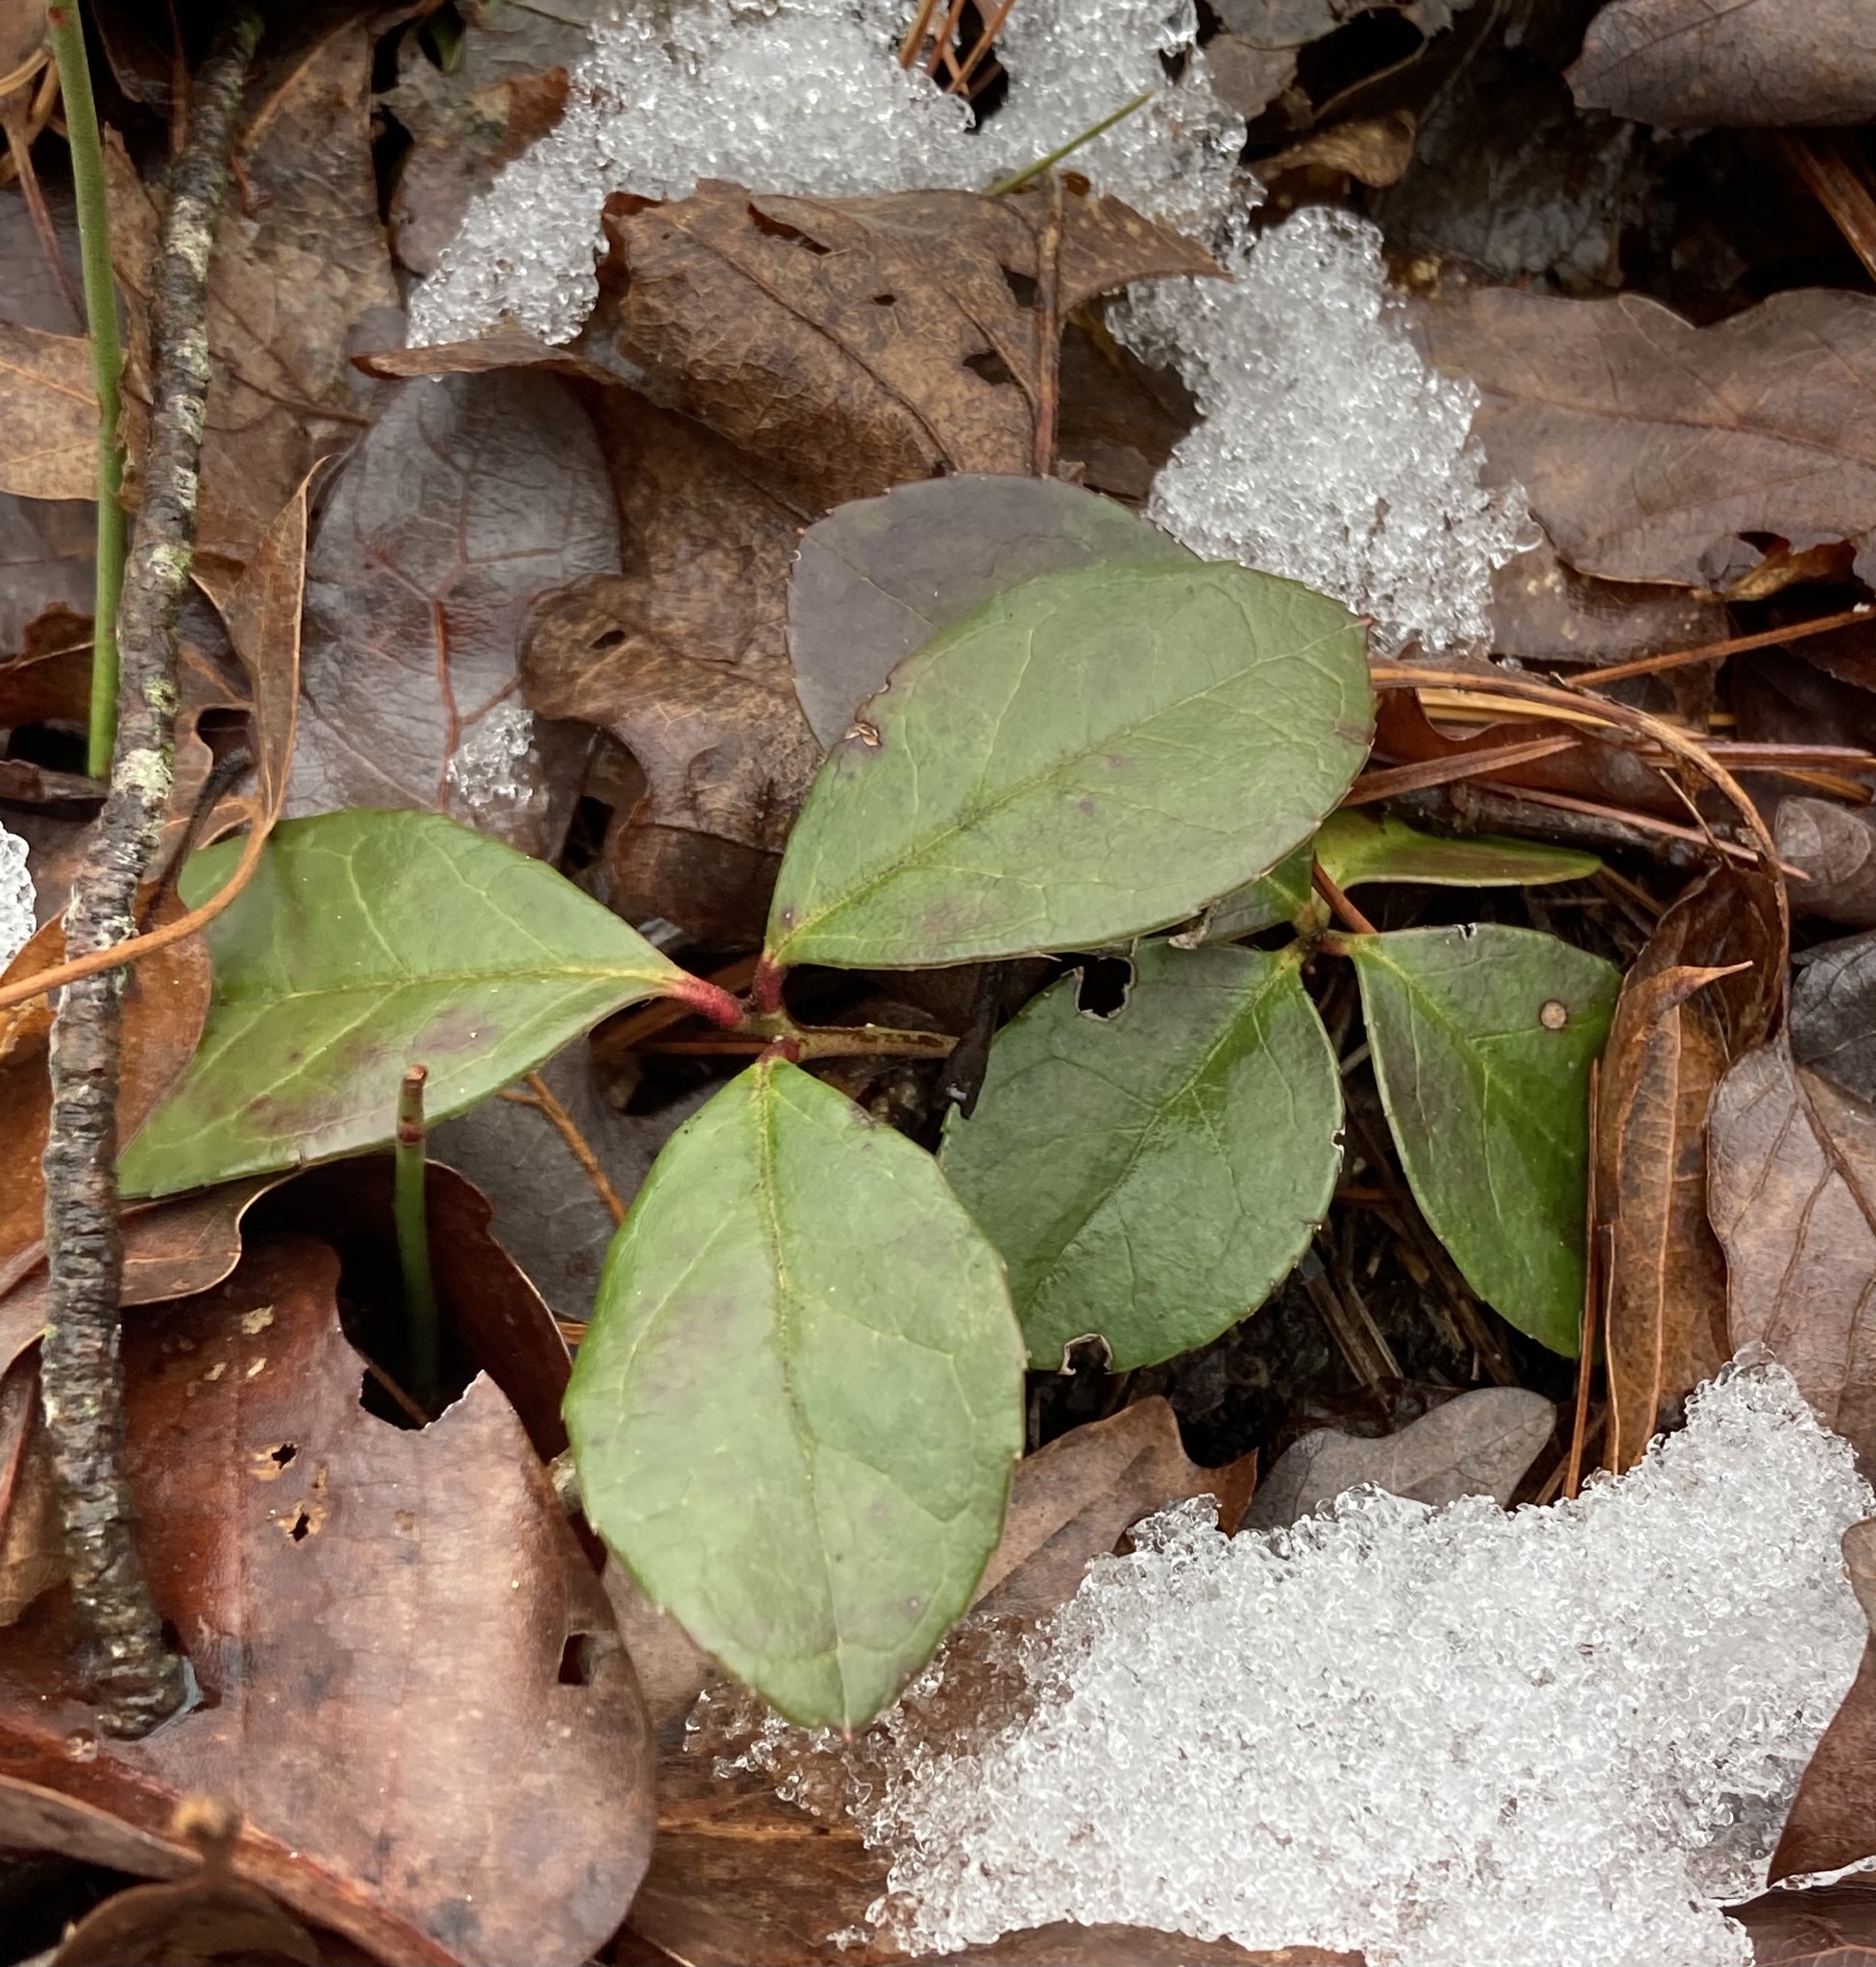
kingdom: Plantae
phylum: Tracheophyta
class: Magnoliopsida
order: Ericales
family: Ericaceae
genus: Gaultheria
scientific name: Gaultheria procumbens
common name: Checkerberry
